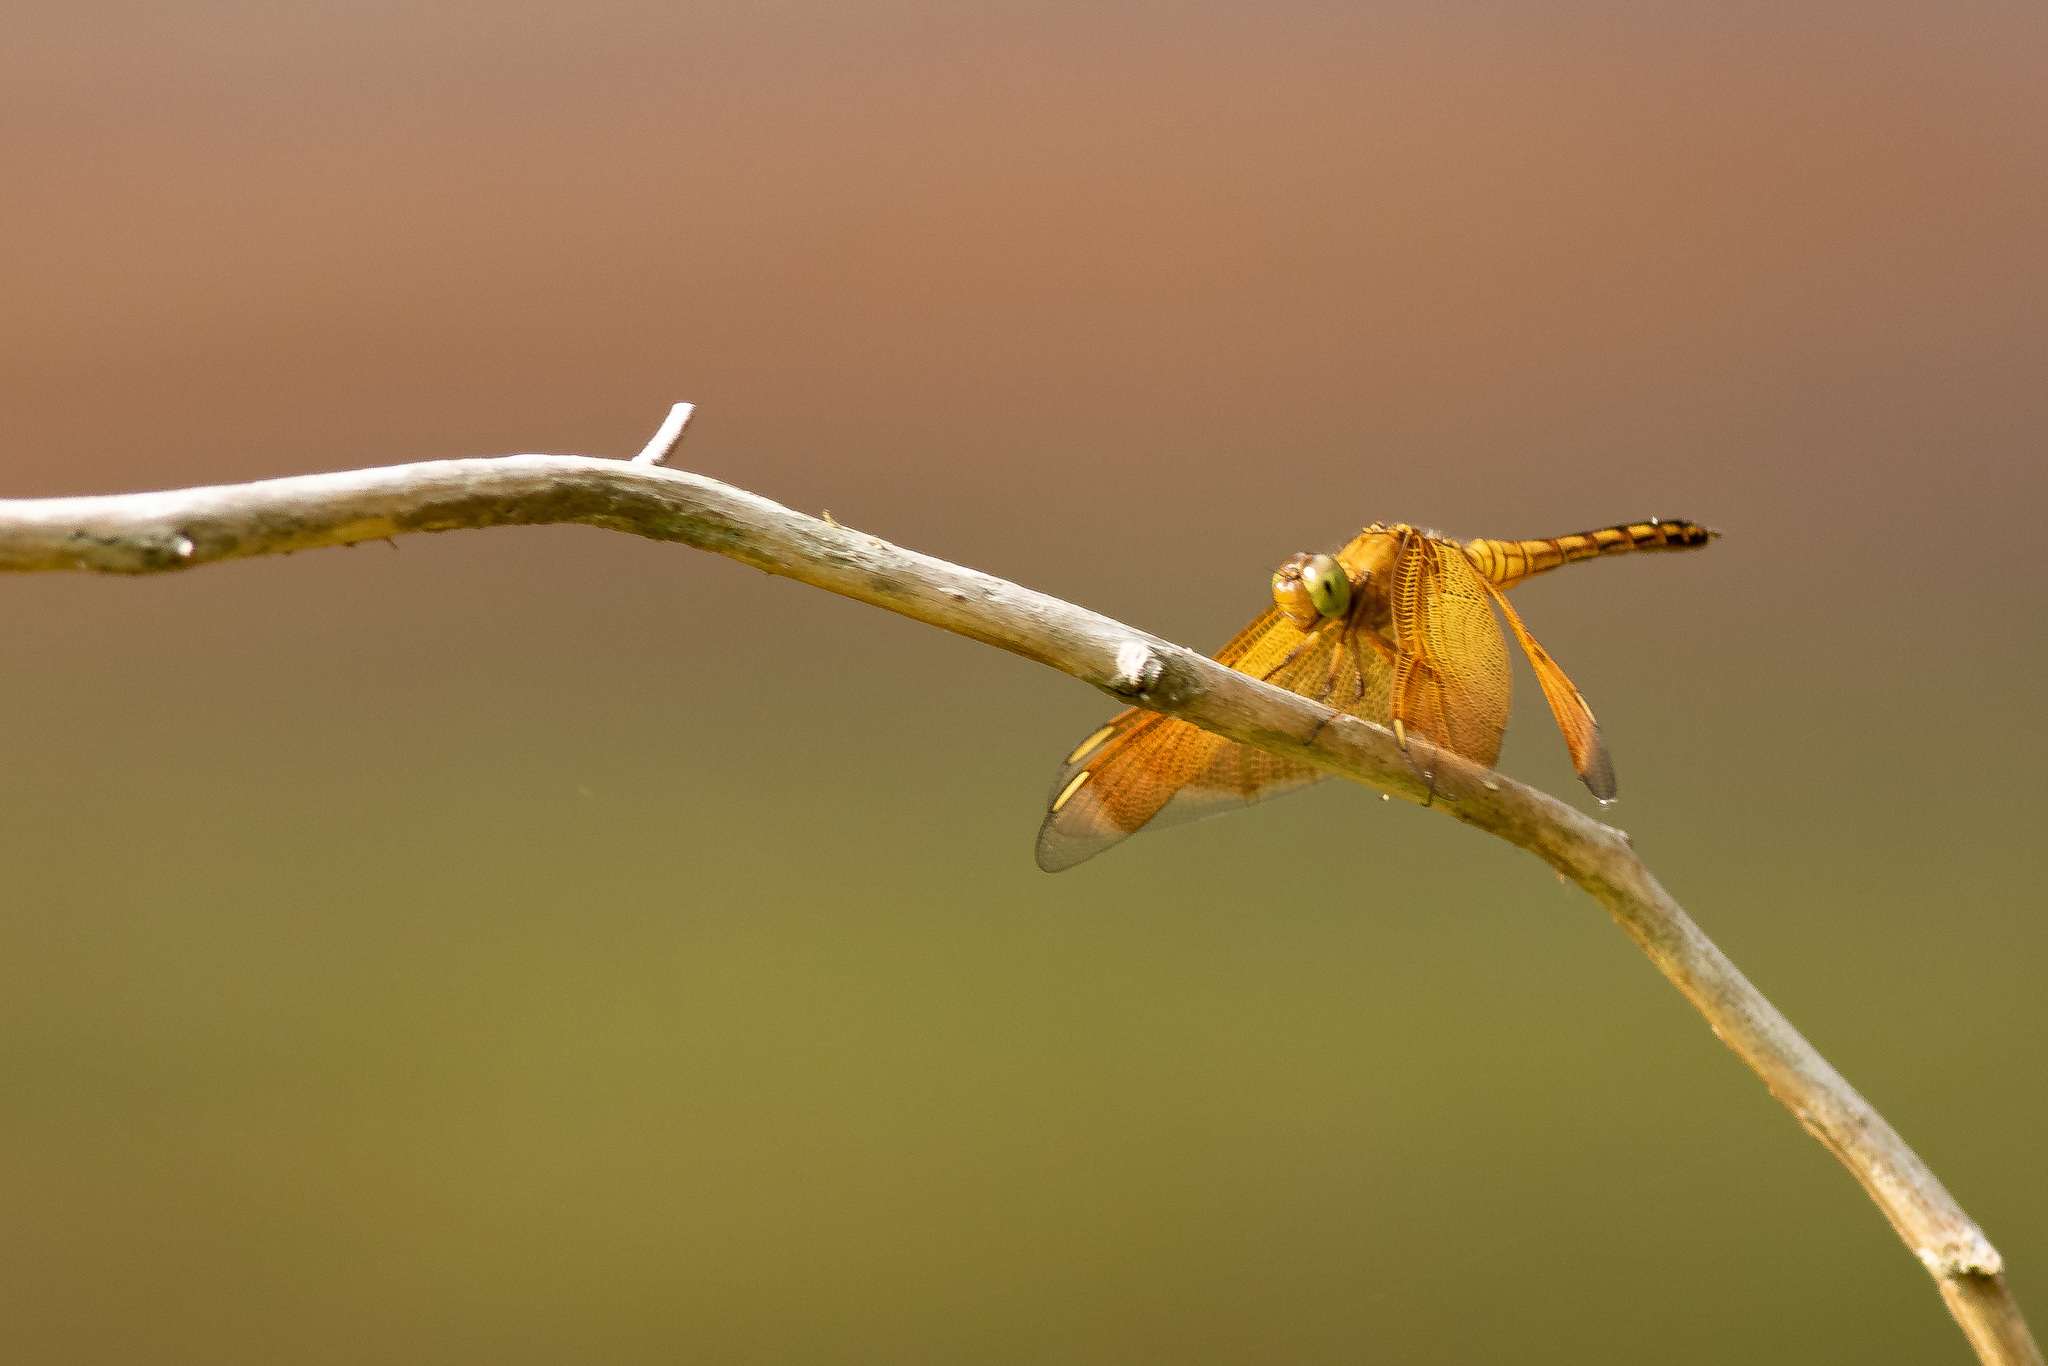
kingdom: Animalia
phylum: Arthropoda
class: Insecta
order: Odonata
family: Libellulidae
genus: Neurothemis
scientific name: Neurothemis taiwanensis
